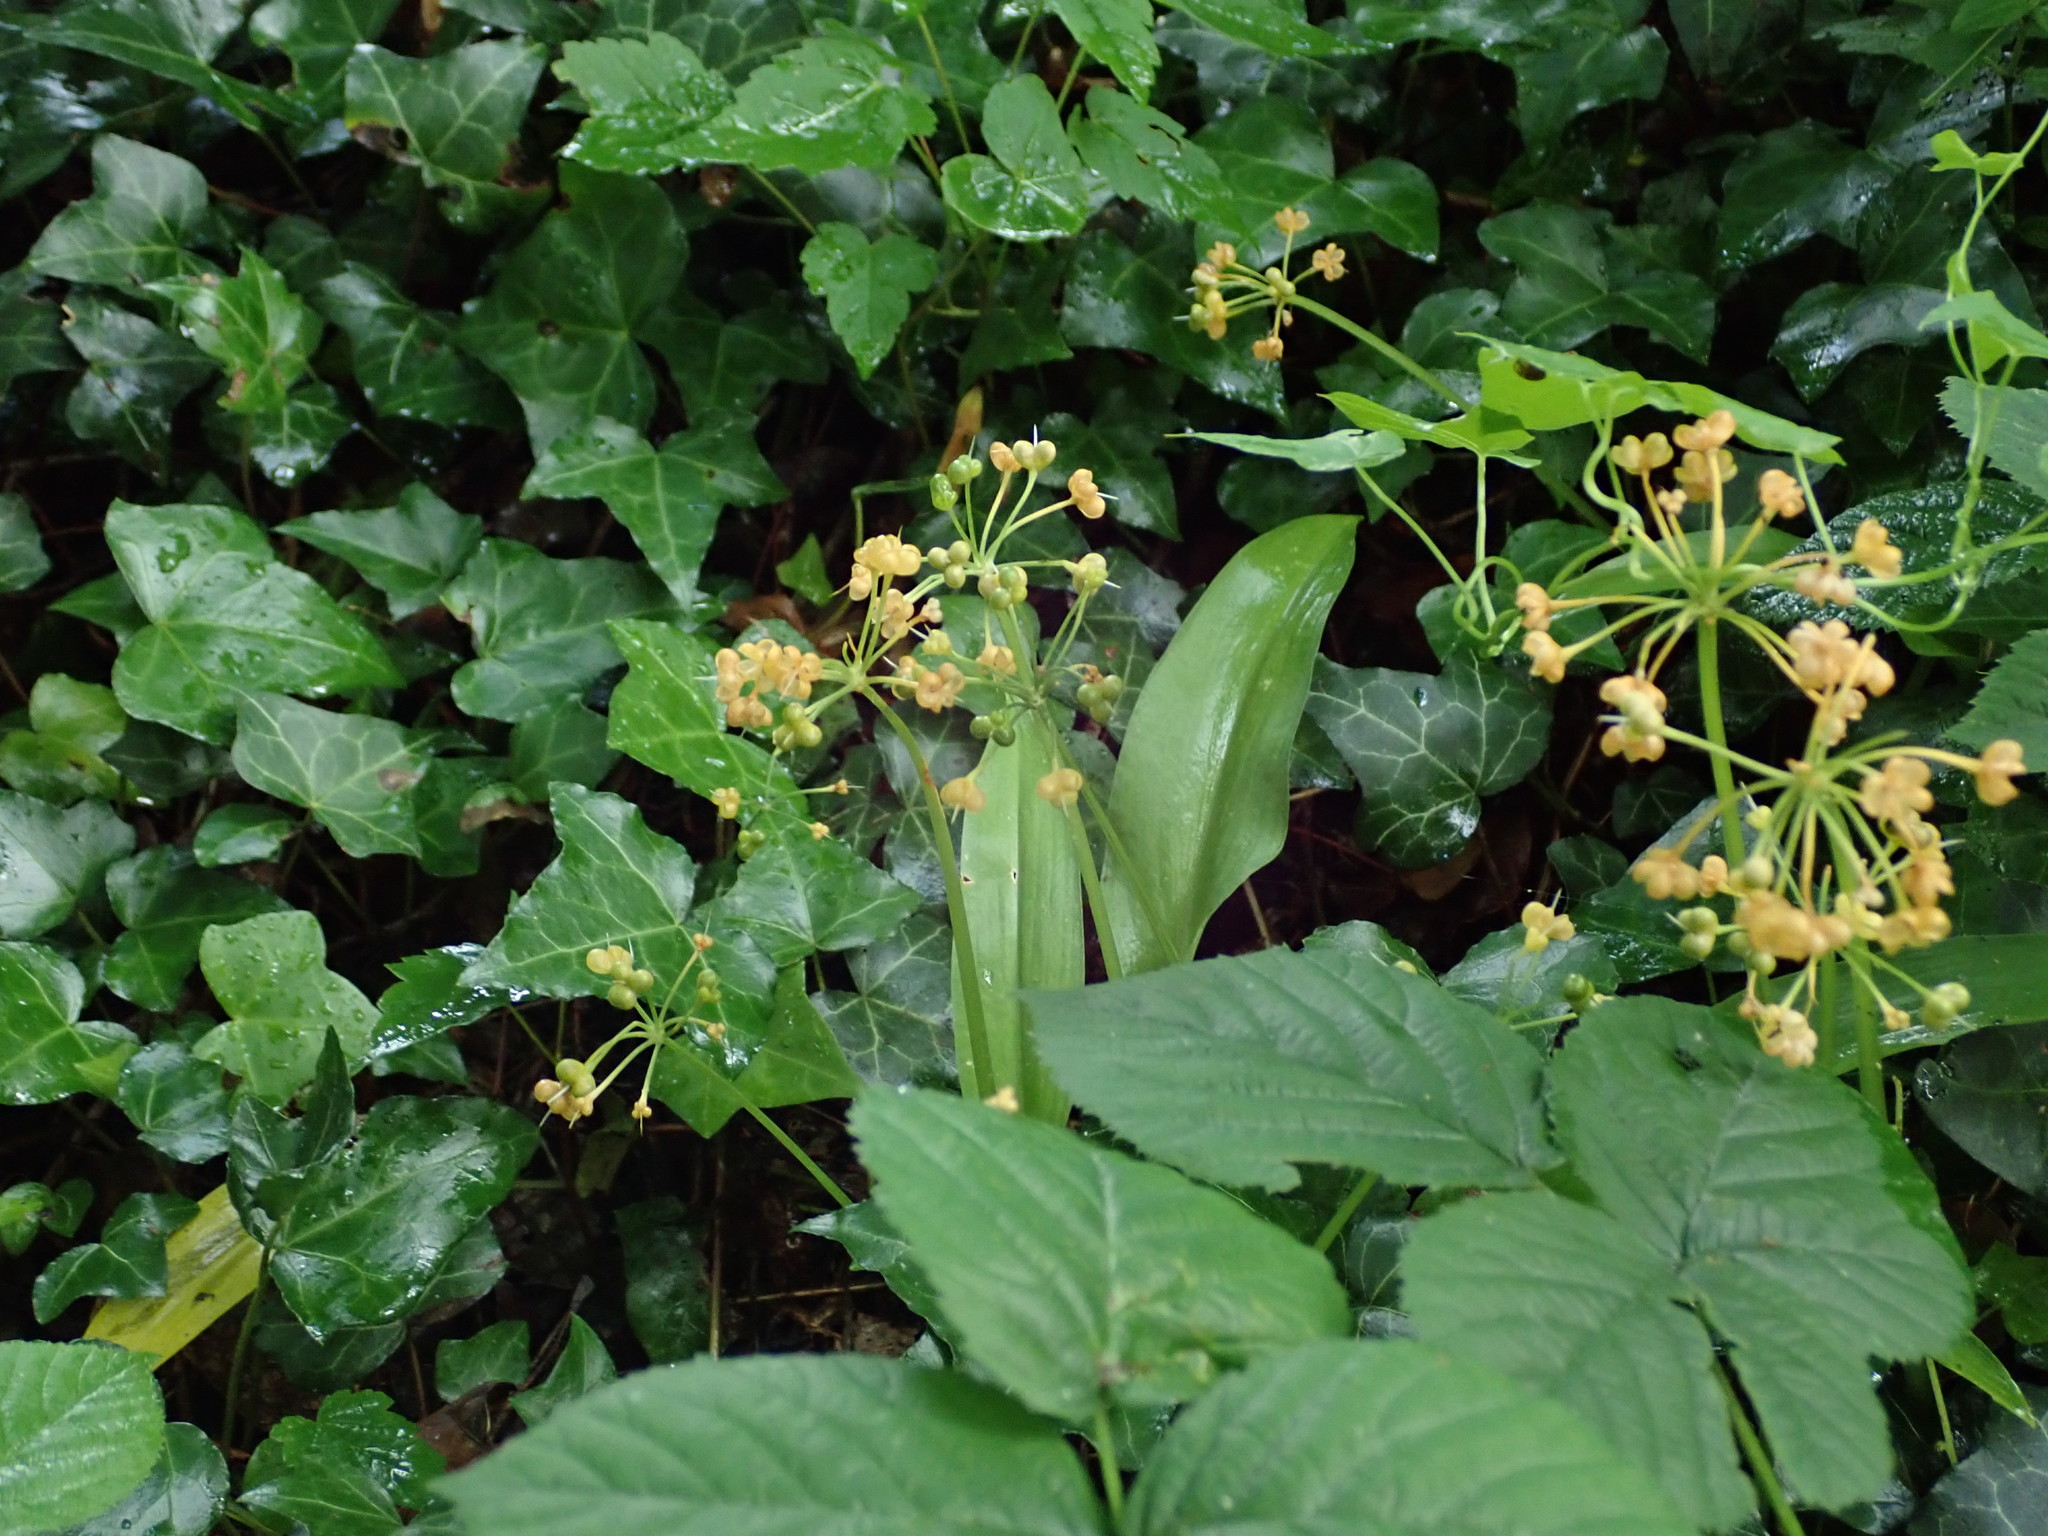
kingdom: Plantae
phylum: Tracheophyta
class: Liliopsida
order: Asparagales
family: Amaryllidaceae
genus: Allium
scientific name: Allium ursinum
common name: Ramsons
